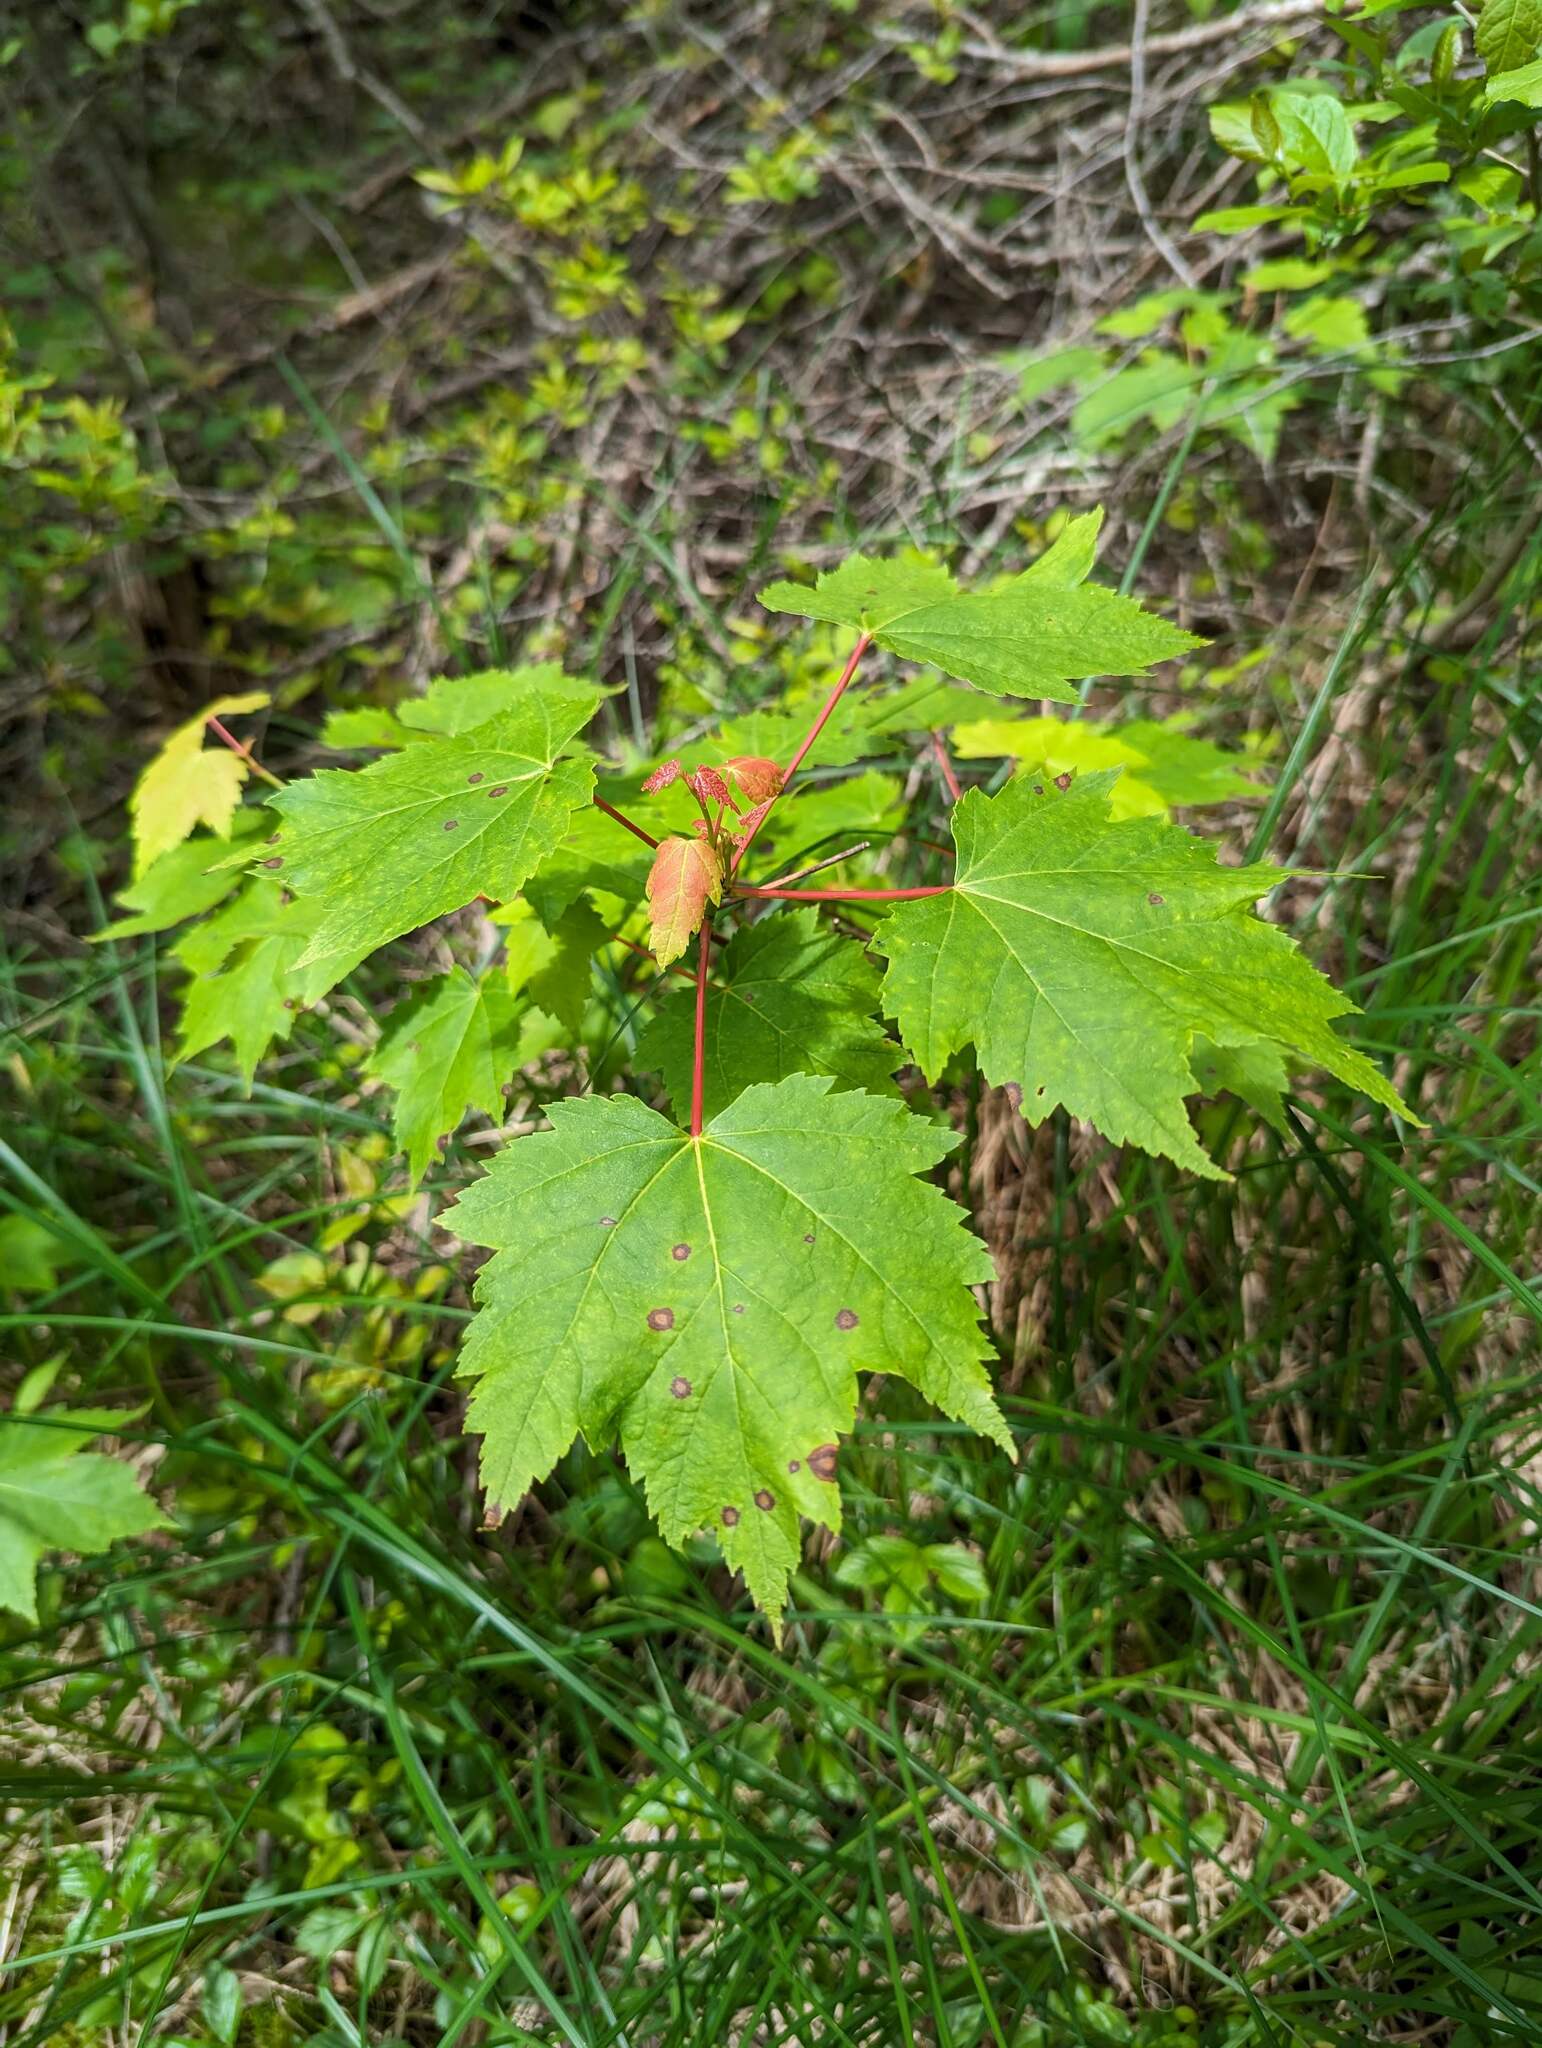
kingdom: Plantae
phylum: Tracheophyta
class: Magnoliopsida
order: Sapindales
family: Sapindaceae
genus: Acer
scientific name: Acer rubrum
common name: Red maple
